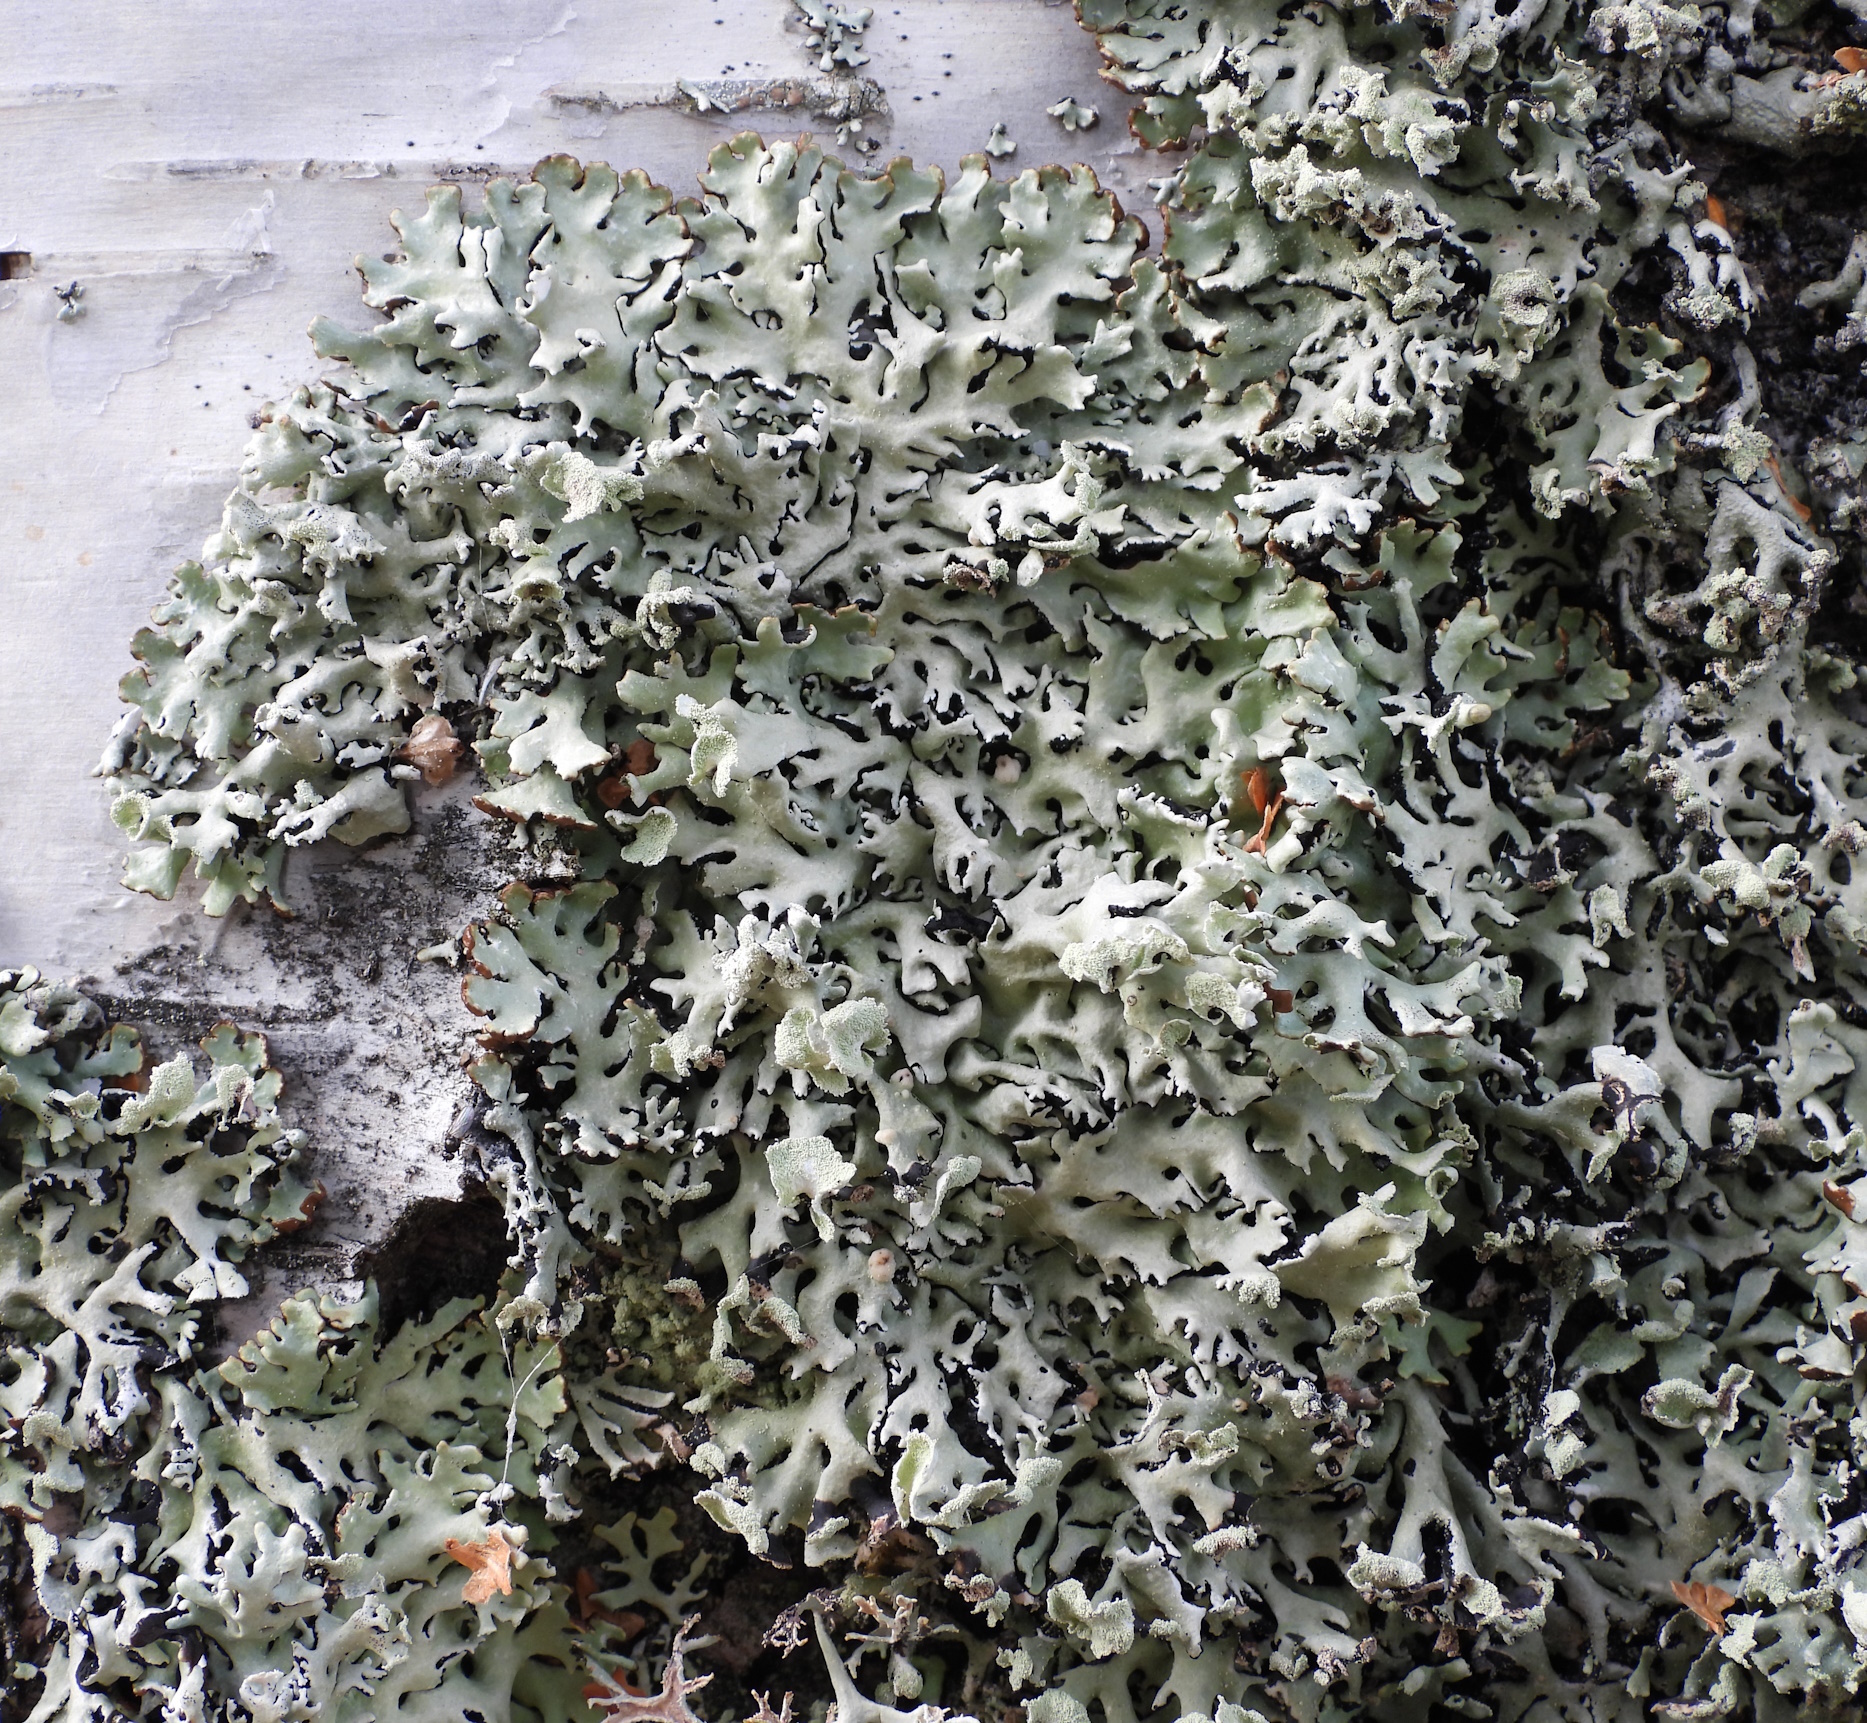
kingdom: Fungi
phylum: Ascomycota
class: Lecanoromycetes
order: Lecanorales
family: Parmeliaceae
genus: Hypogymnia
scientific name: Hypogymnia physodes
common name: Dark crottle
